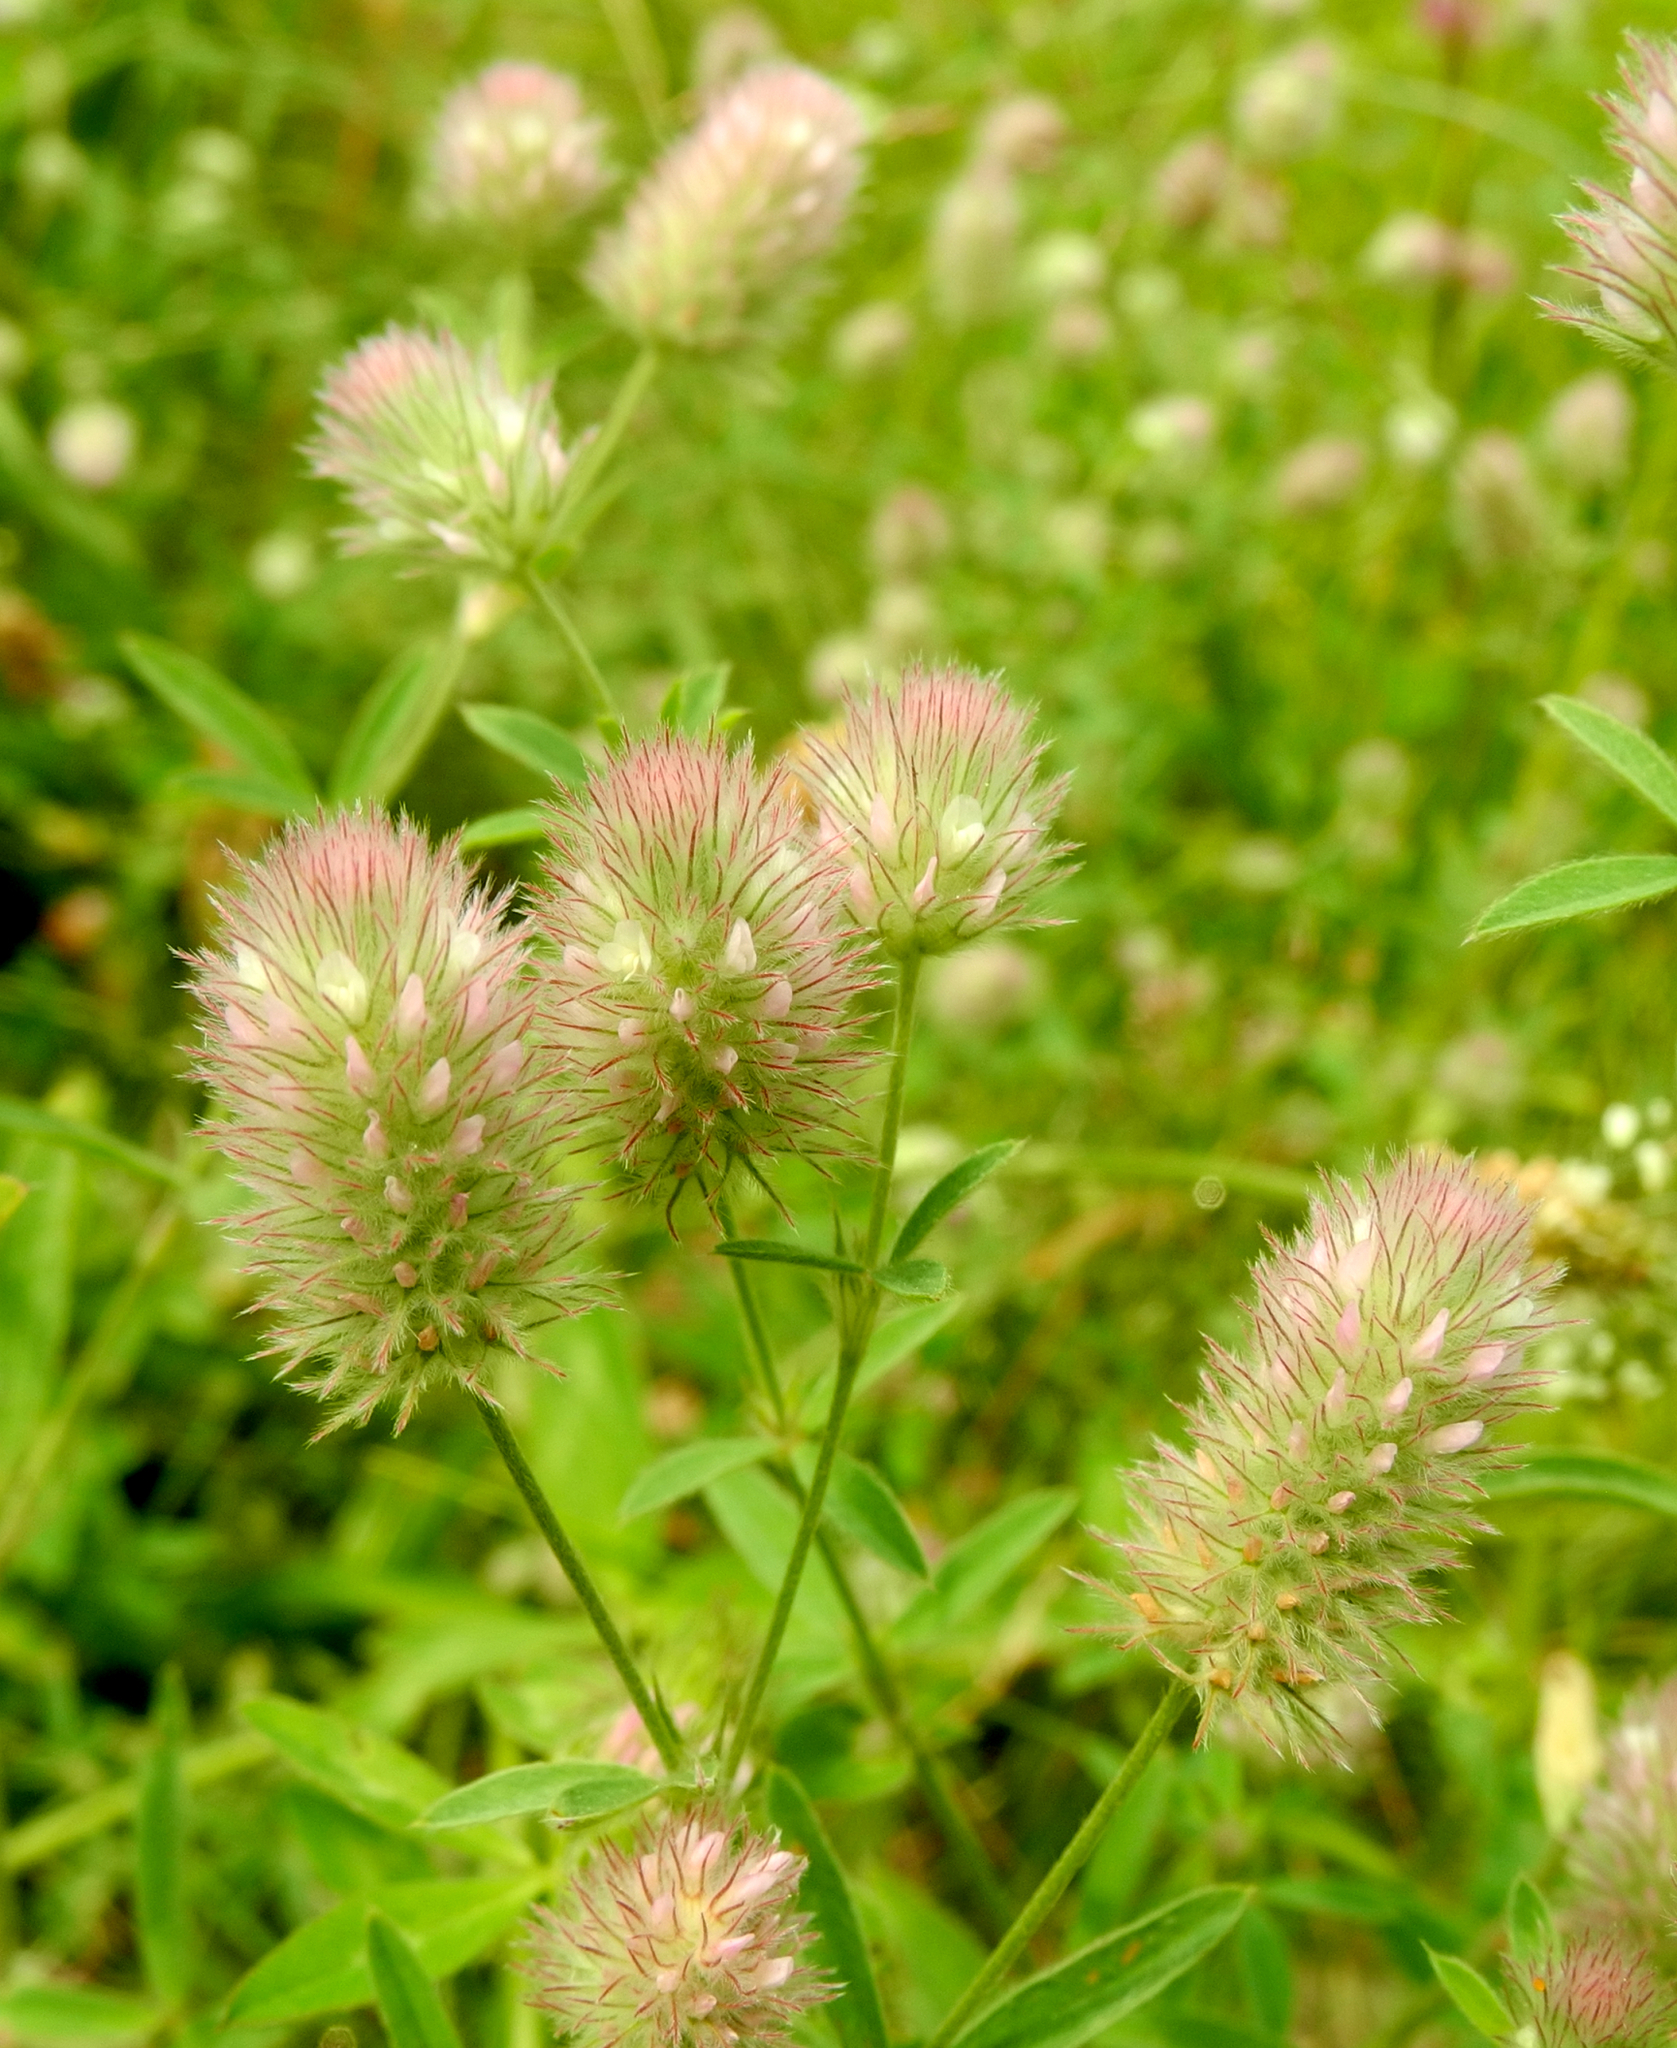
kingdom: Plantae
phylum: Tracheophyta
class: Magnoliopsida
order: Fabales
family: Fabaceae
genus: Trifolium
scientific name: Trifolium arvense
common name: Hare's-foot clover
